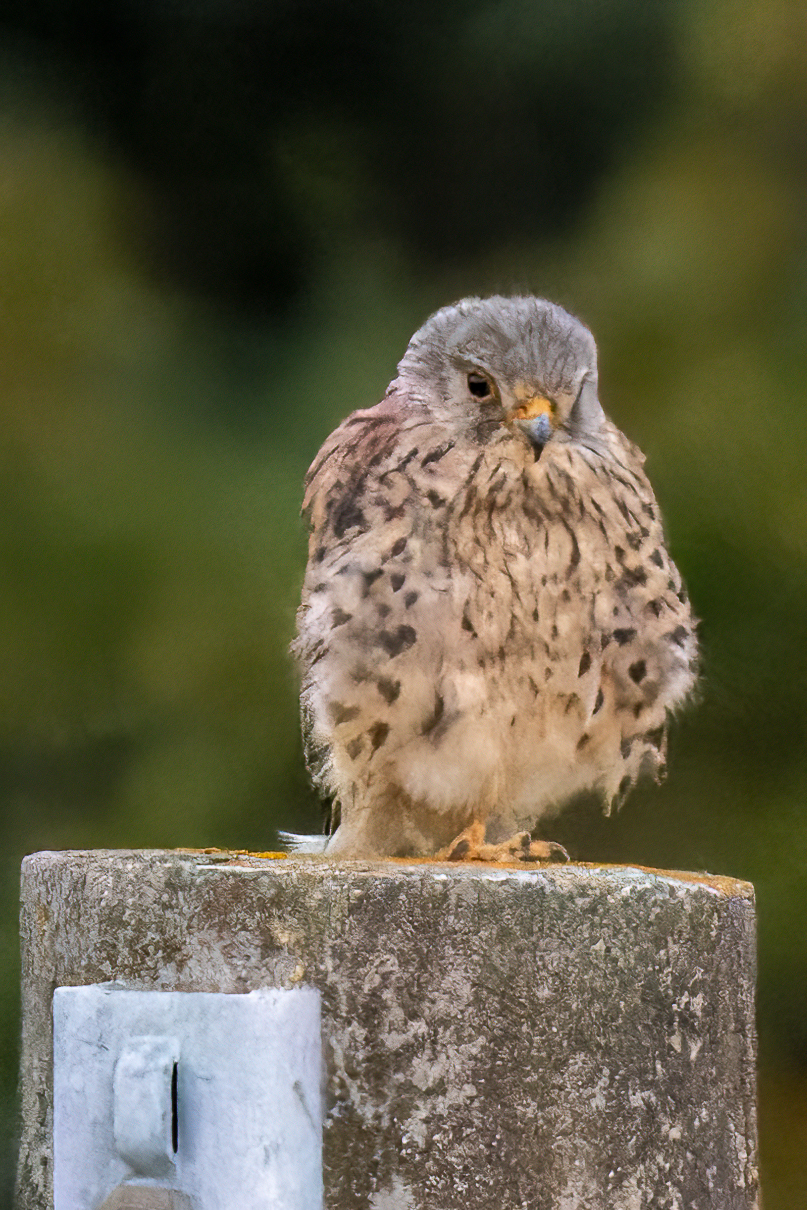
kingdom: Animalia
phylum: Chordata
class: Aves
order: Falconiformes
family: Falconidae
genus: Falco
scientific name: Falco tinnunculus
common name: Common kestrel
